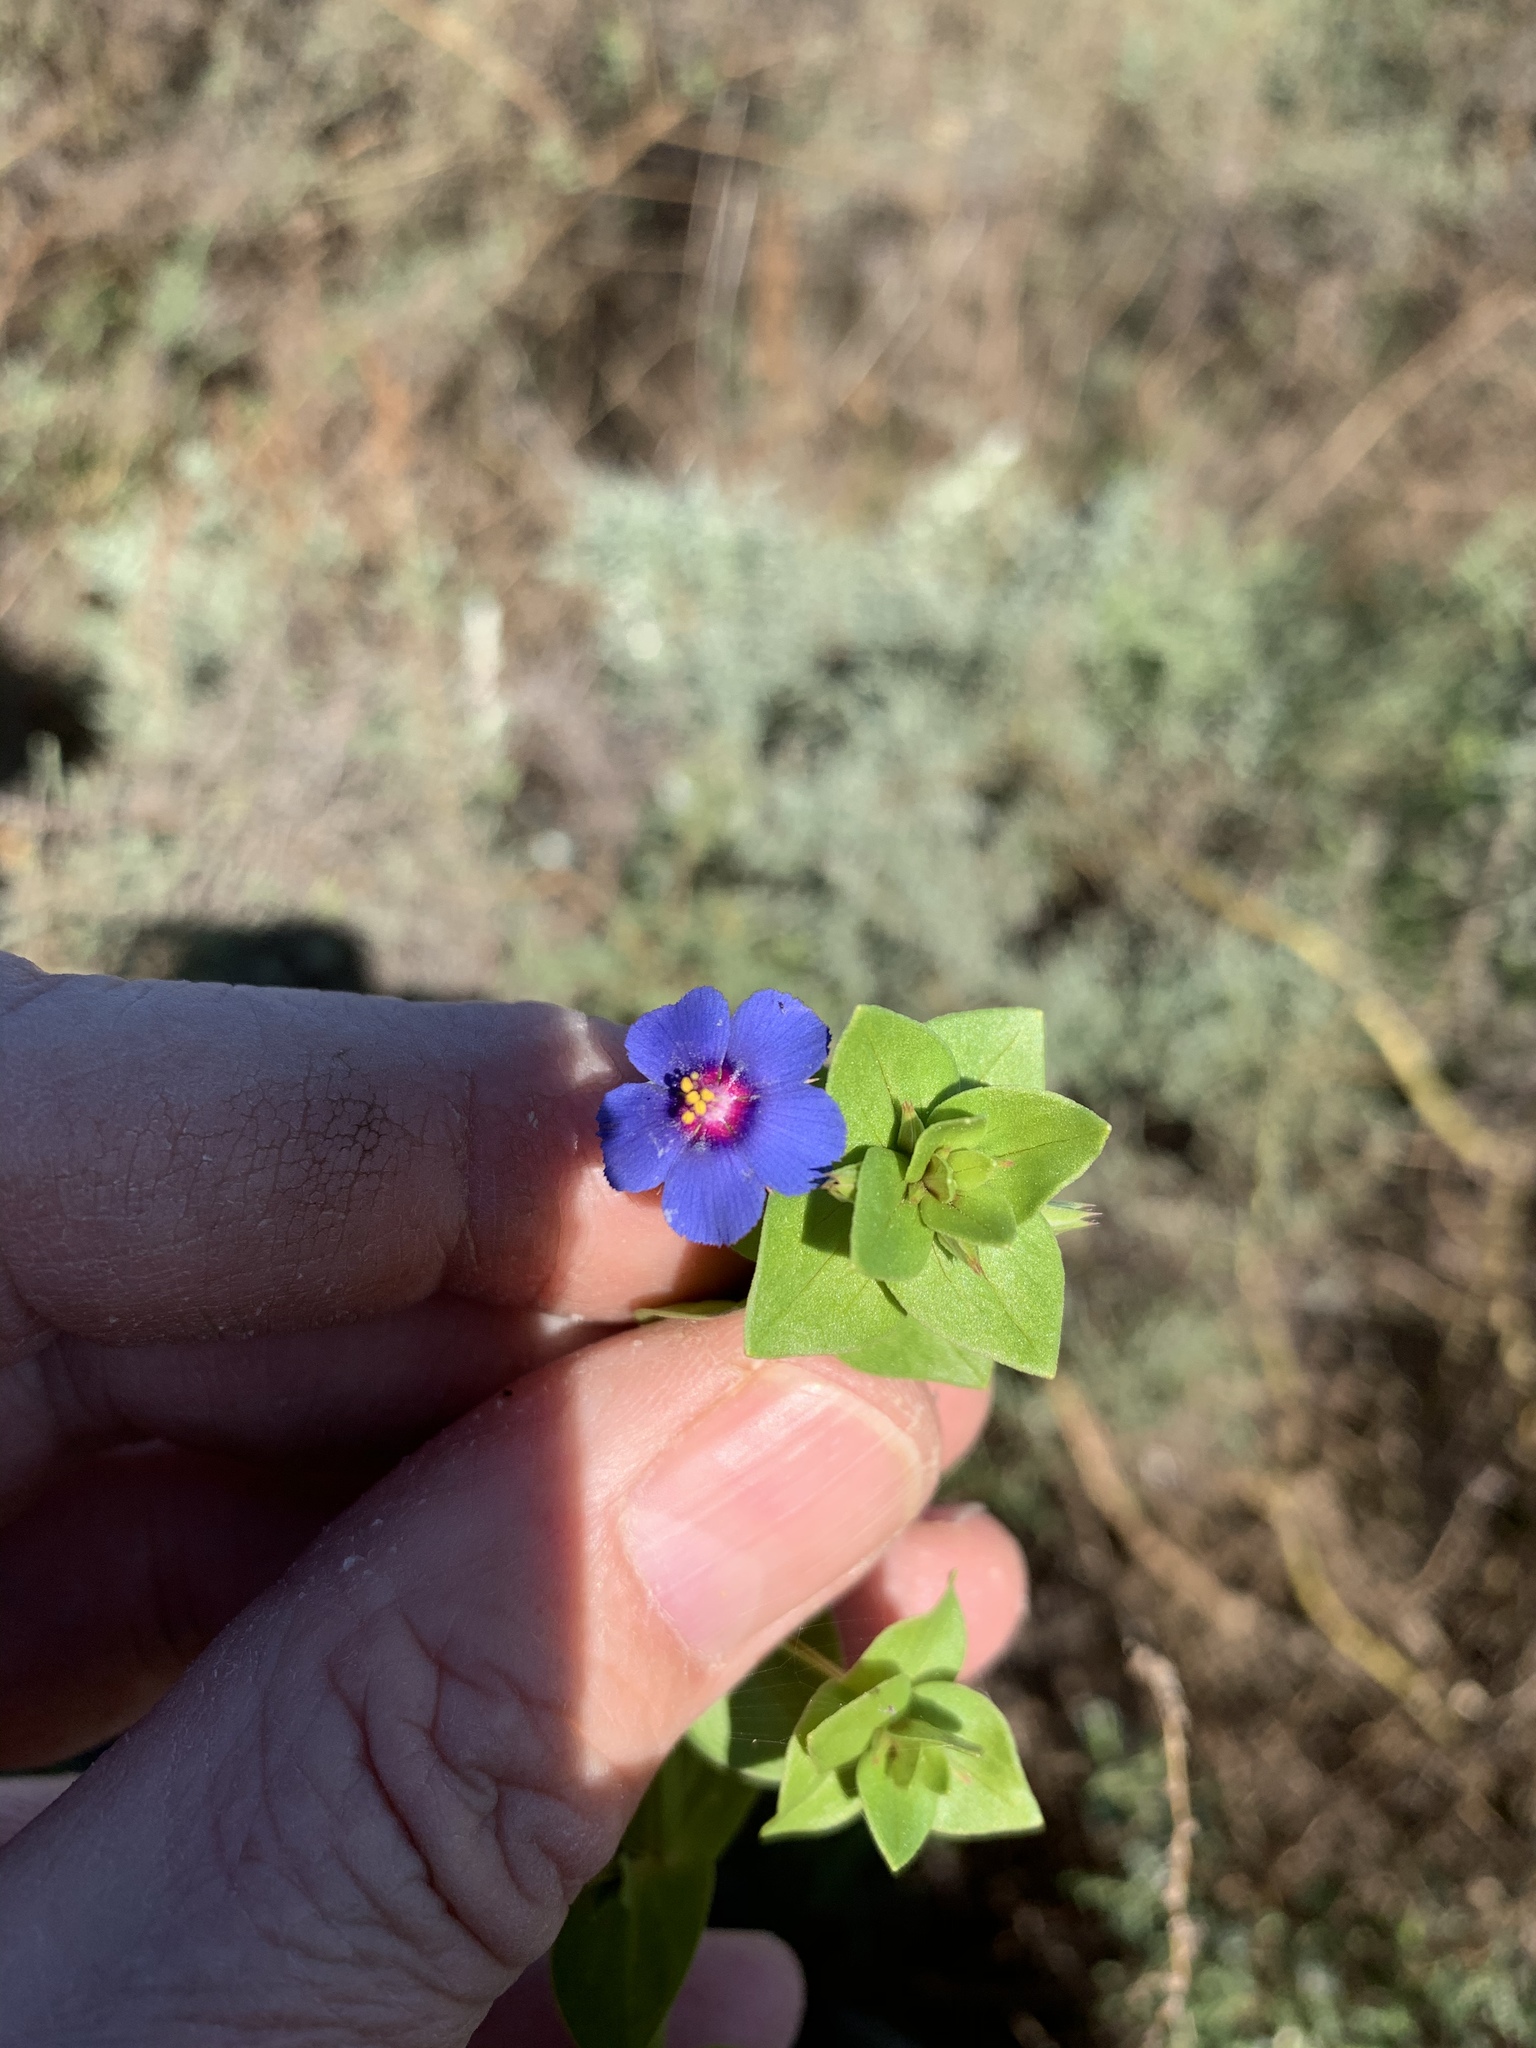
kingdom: Plantae
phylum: Tracheophyta
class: Magnoliopsida
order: Ericales
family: Primulaceae
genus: Lysimachia
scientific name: Lysimachia loeflingii
